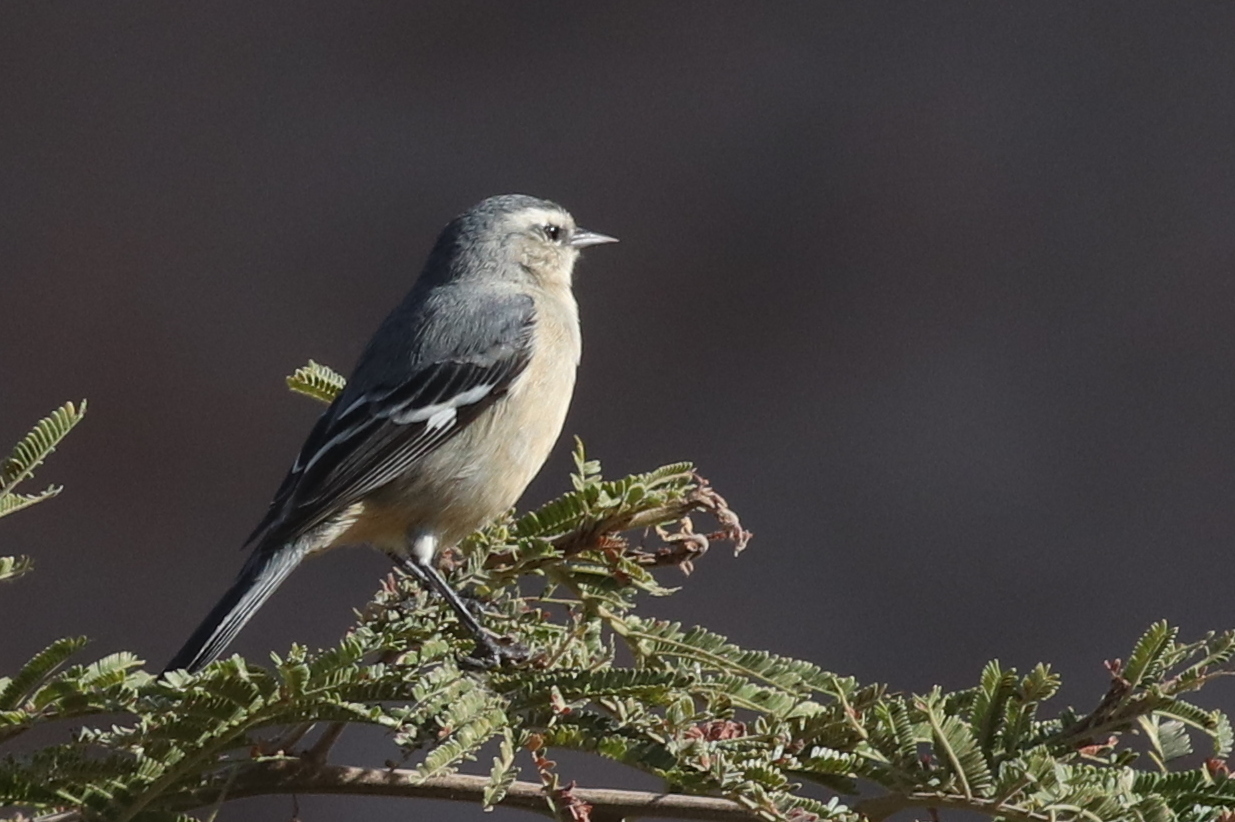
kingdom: Animalia
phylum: Chordata
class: Aves
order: Passeriformes
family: Thraupidae
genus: Conirostrum
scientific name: Conirostrum cinereum
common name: Cinereous conebill
